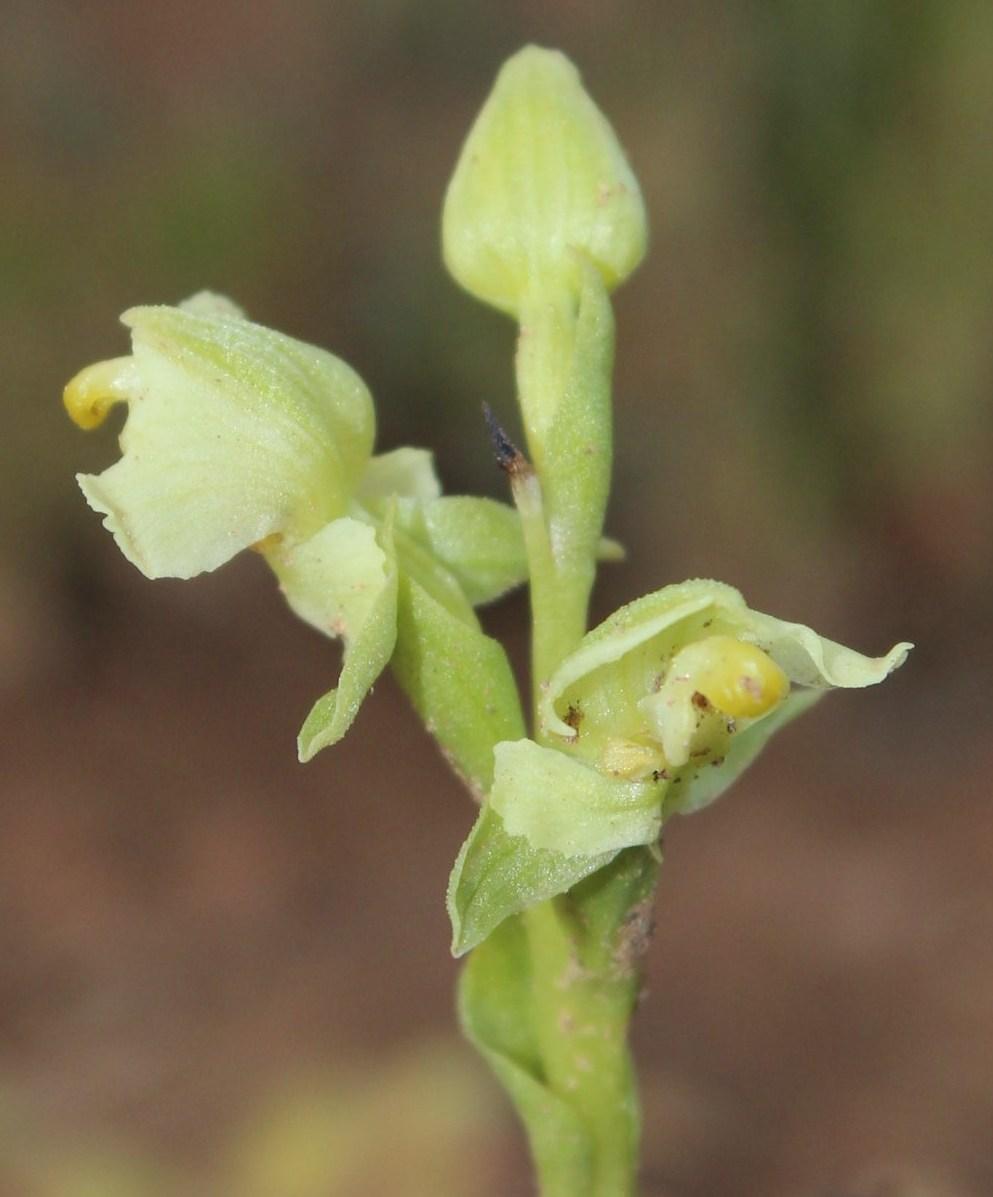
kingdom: Plantae
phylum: Tracheophyta
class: Liliopsida
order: Asparagales
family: Orchidaceae
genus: Pterygodium
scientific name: Pterygodium alatum
